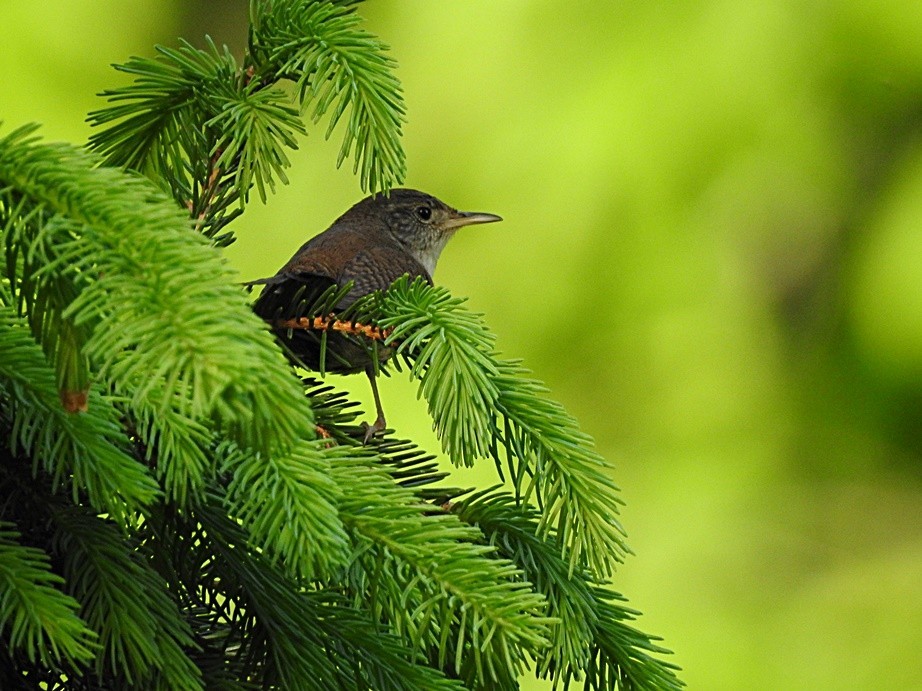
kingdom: Animalia
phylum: Chordata
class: Aves
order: Passeriformes
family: Troglodytidae
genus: Troglodytes
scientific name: Troglodytes aedon
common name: House wren
